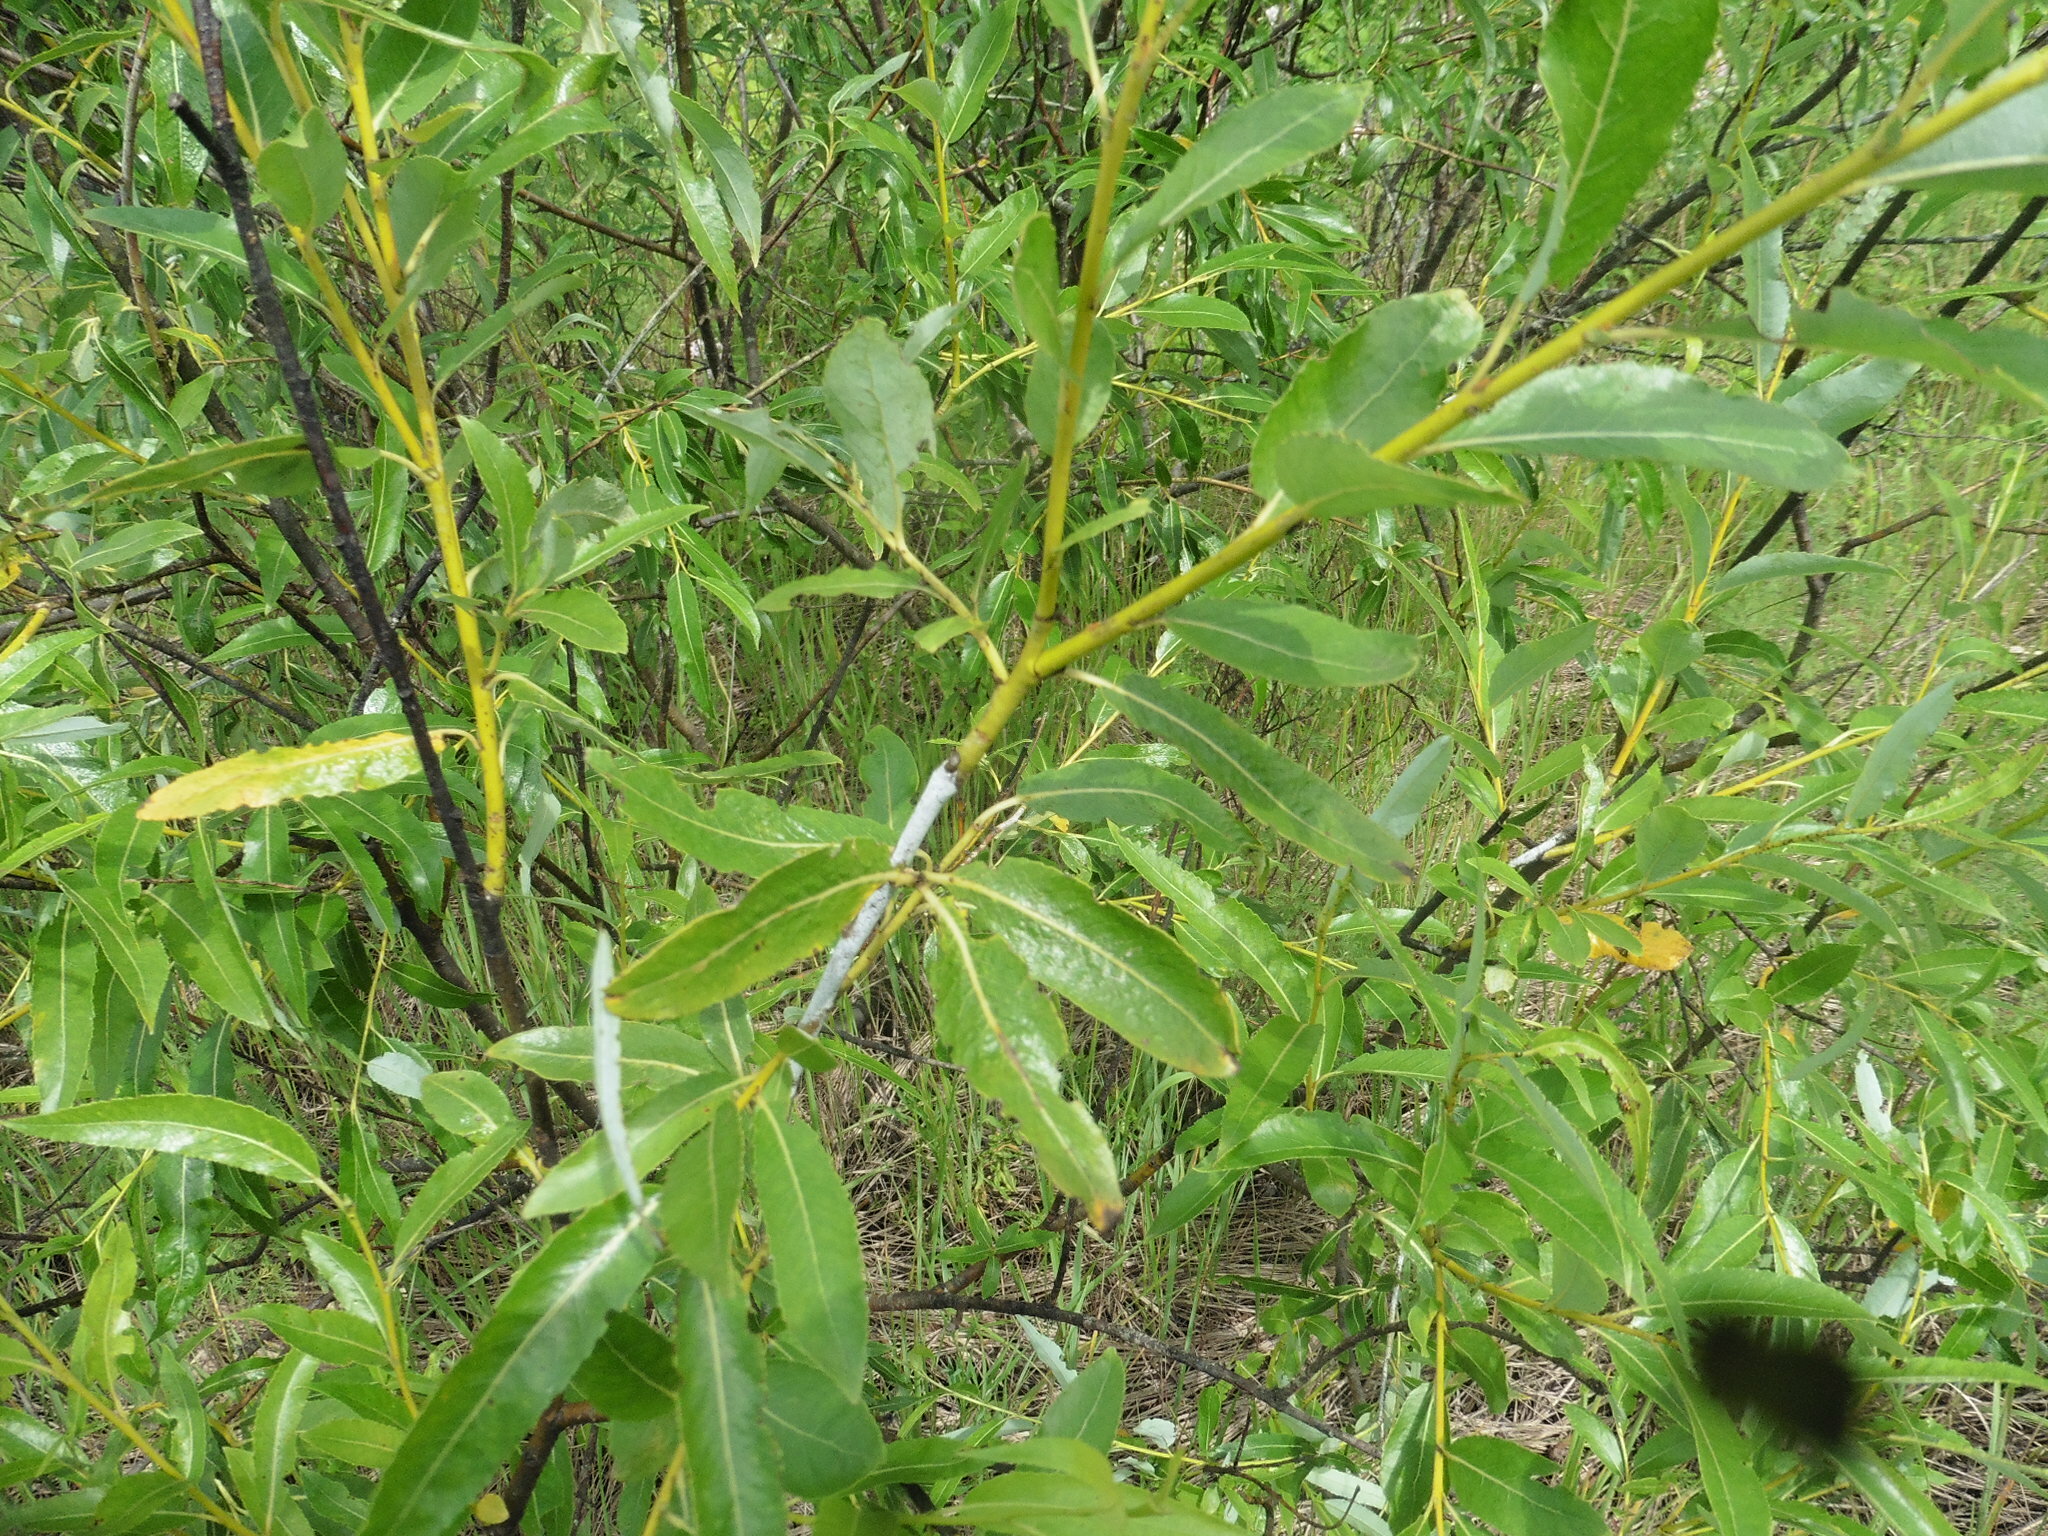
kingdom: Plantae
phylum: Tracheophyta
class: Magnoliopsida
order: Malpighiales
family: Salicaceae
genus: Salix
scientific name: Salix acutifolia
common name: Siberian violet-willow
